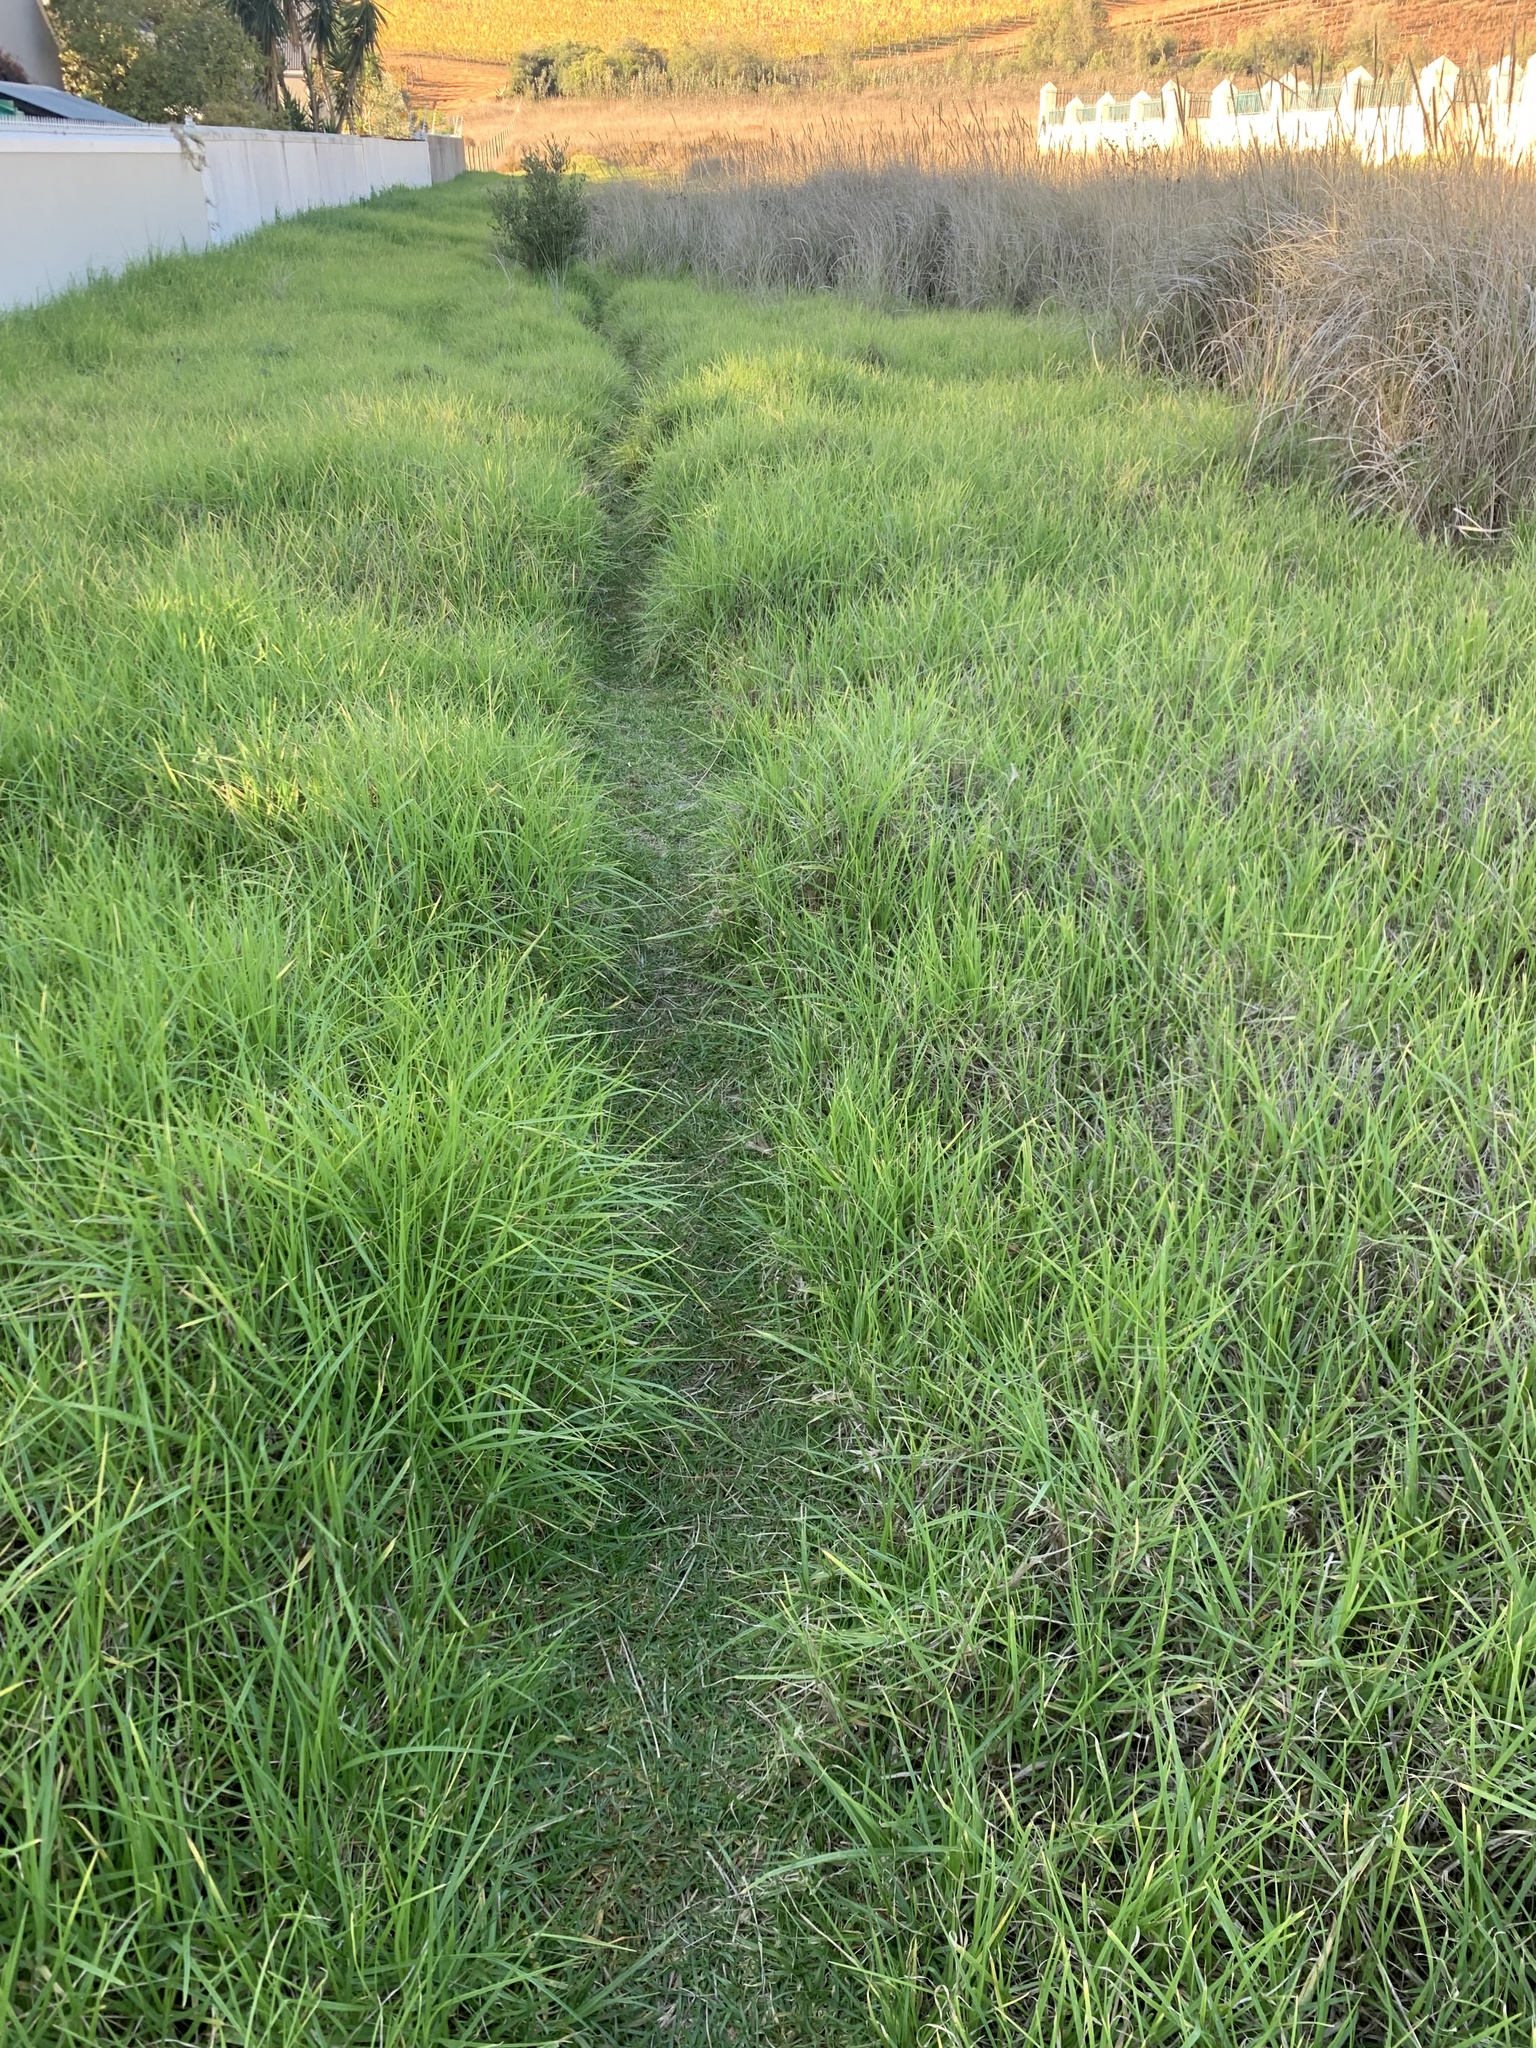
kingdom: Plantae
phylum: Tracheophyta
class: Liliopsida
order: Poales
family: Poaceae
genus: Cenchrus
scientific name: Cenchrus clandestinus
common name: Kikuyugrass
